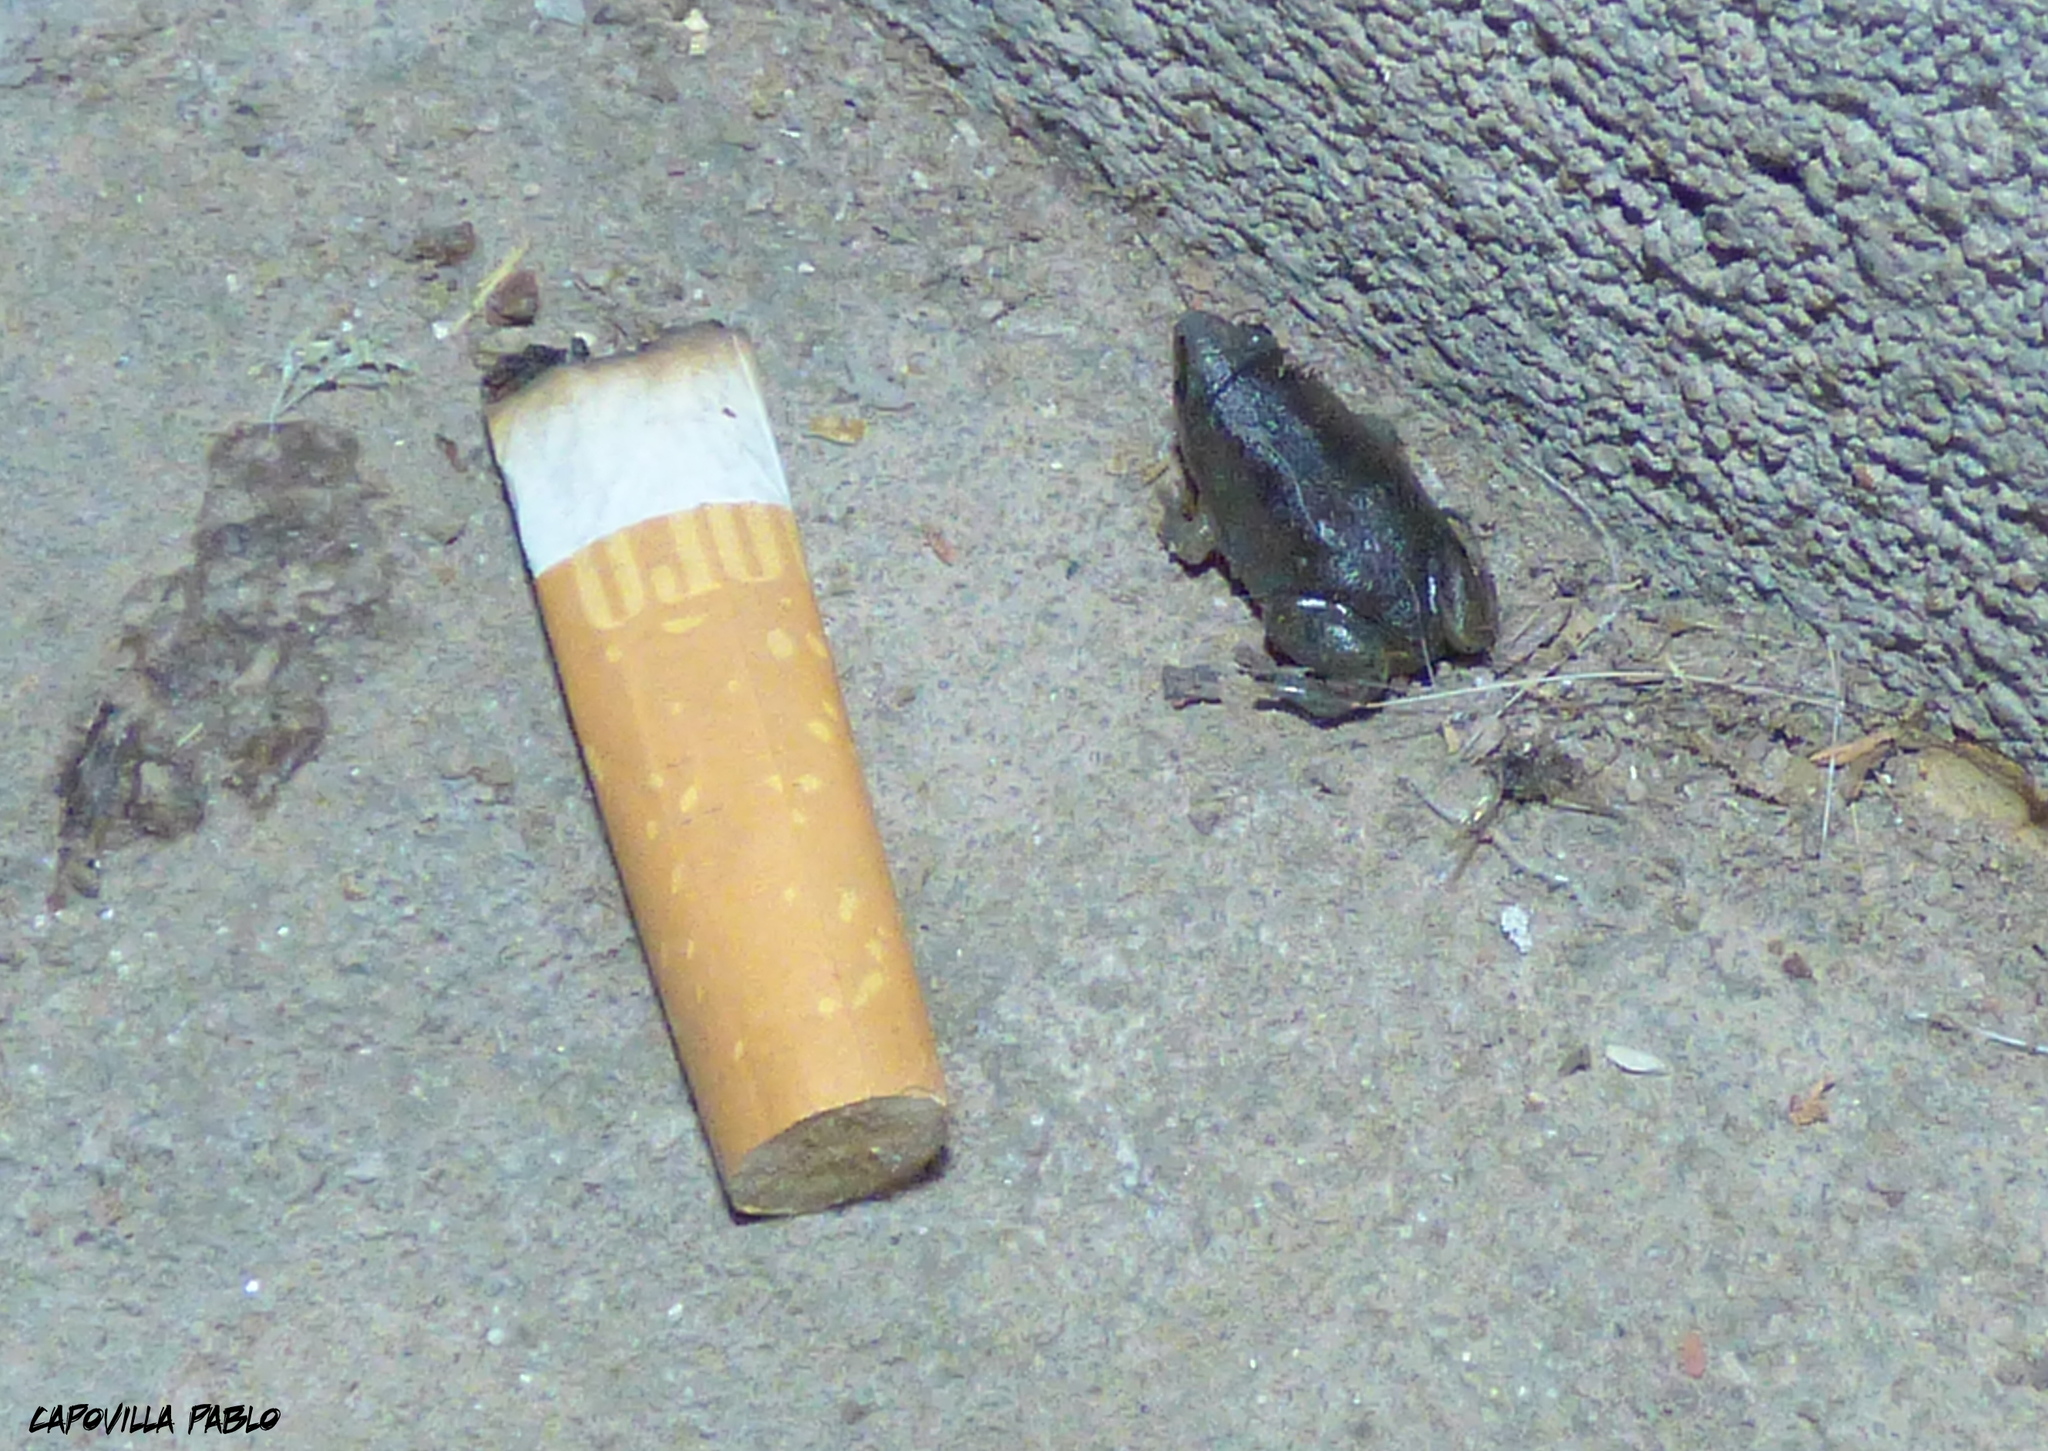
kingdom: Animalia
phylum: Chordata
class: Amphibia
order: Anura
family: Microhylidae
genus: Elachistocleis
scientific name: Elachistocleis bicolor
